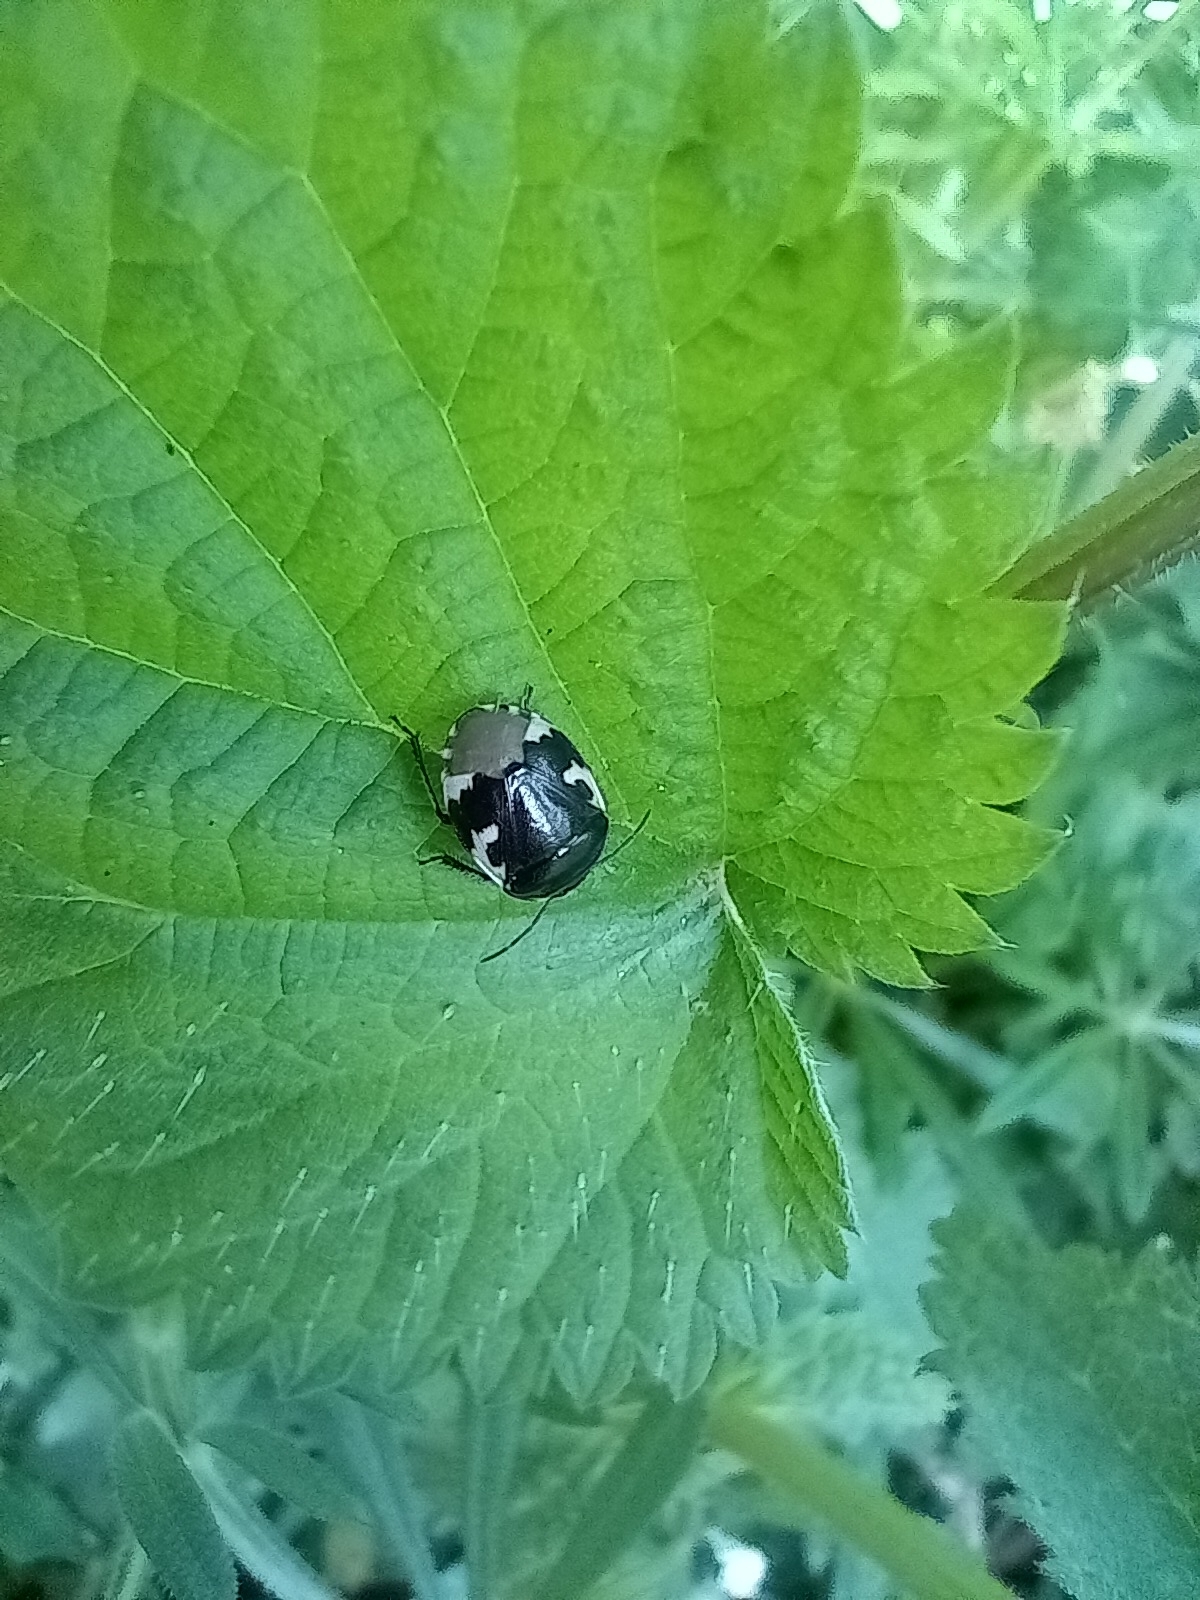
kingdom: Animalia
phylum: Arthropoda
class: Insecta
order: Hemiptera
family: Cydnidae
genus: Tritomegas
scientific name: Tritomegas bicolor
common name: Pied shieldbug
